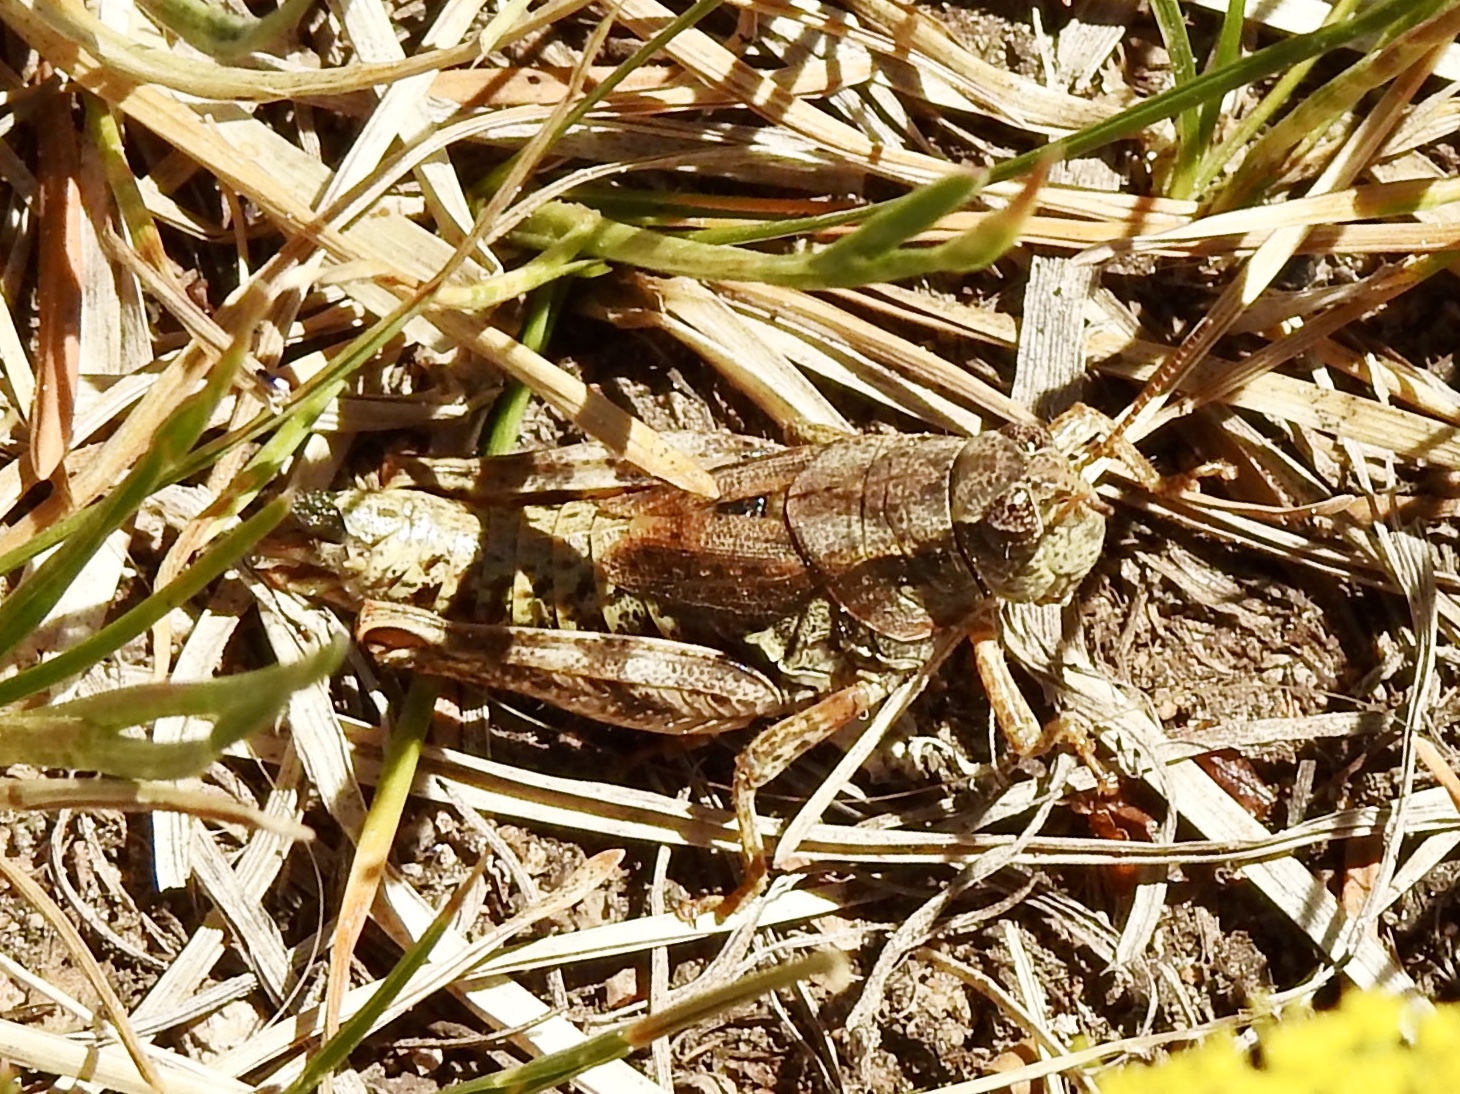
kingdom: Animalia
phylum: Arthropoda
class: Insecta
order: Orthoptera
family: Acrididae
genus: Melanoplus
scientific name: Melanoplus adapi
